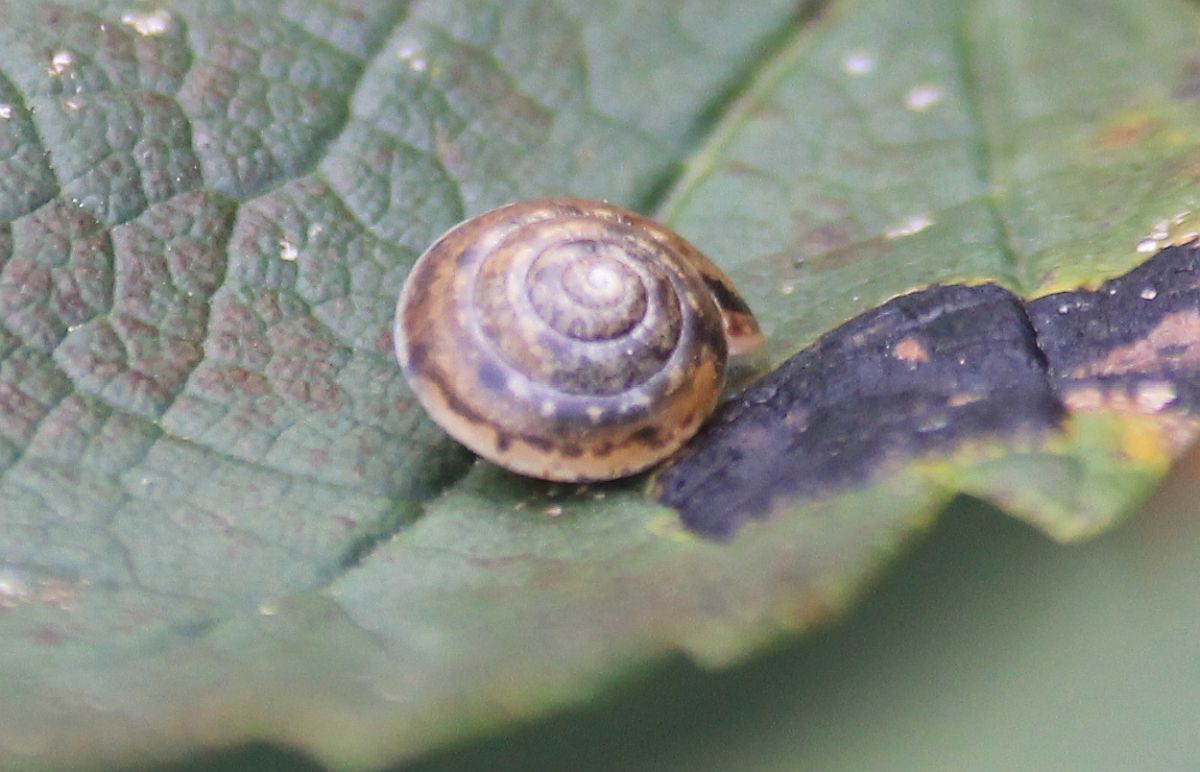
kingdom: Animalia
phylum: Mollusca
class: Gastropoda
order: Stylommatophora
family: Hygromiidae
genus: Hygromia
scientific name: Hygromia cinctella
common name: Girdled snail
